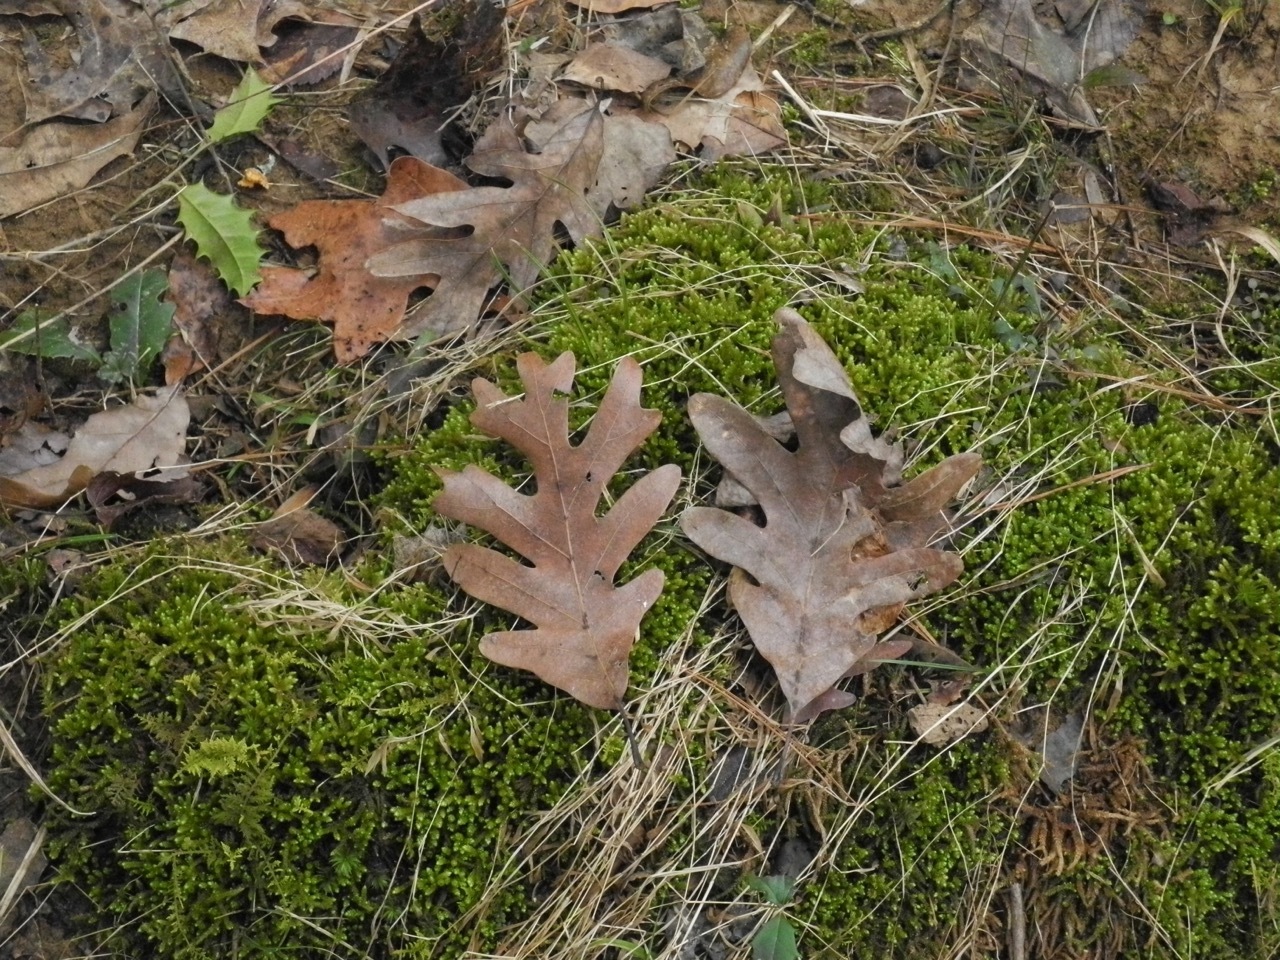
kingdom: Plantae
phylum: Tracheophyta
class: Magnoliopsida
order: Fagales
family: Fagaceae
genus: Quercus
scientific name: Quercus alba
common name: White oak
